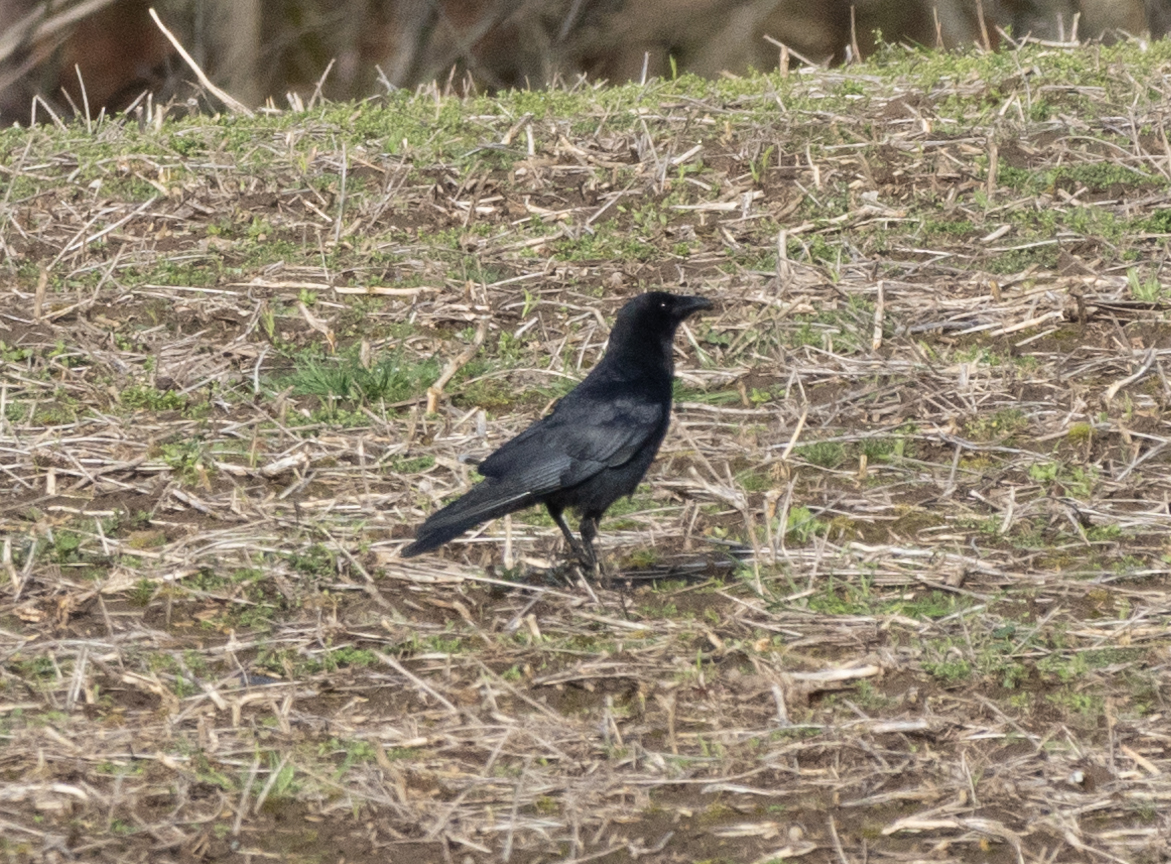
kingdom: Animalia
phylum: Chordata
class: Aves
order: Passeriformes
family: Corvidae
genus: Corvus
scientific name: Corvus brachyrhynchos
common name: American crow
